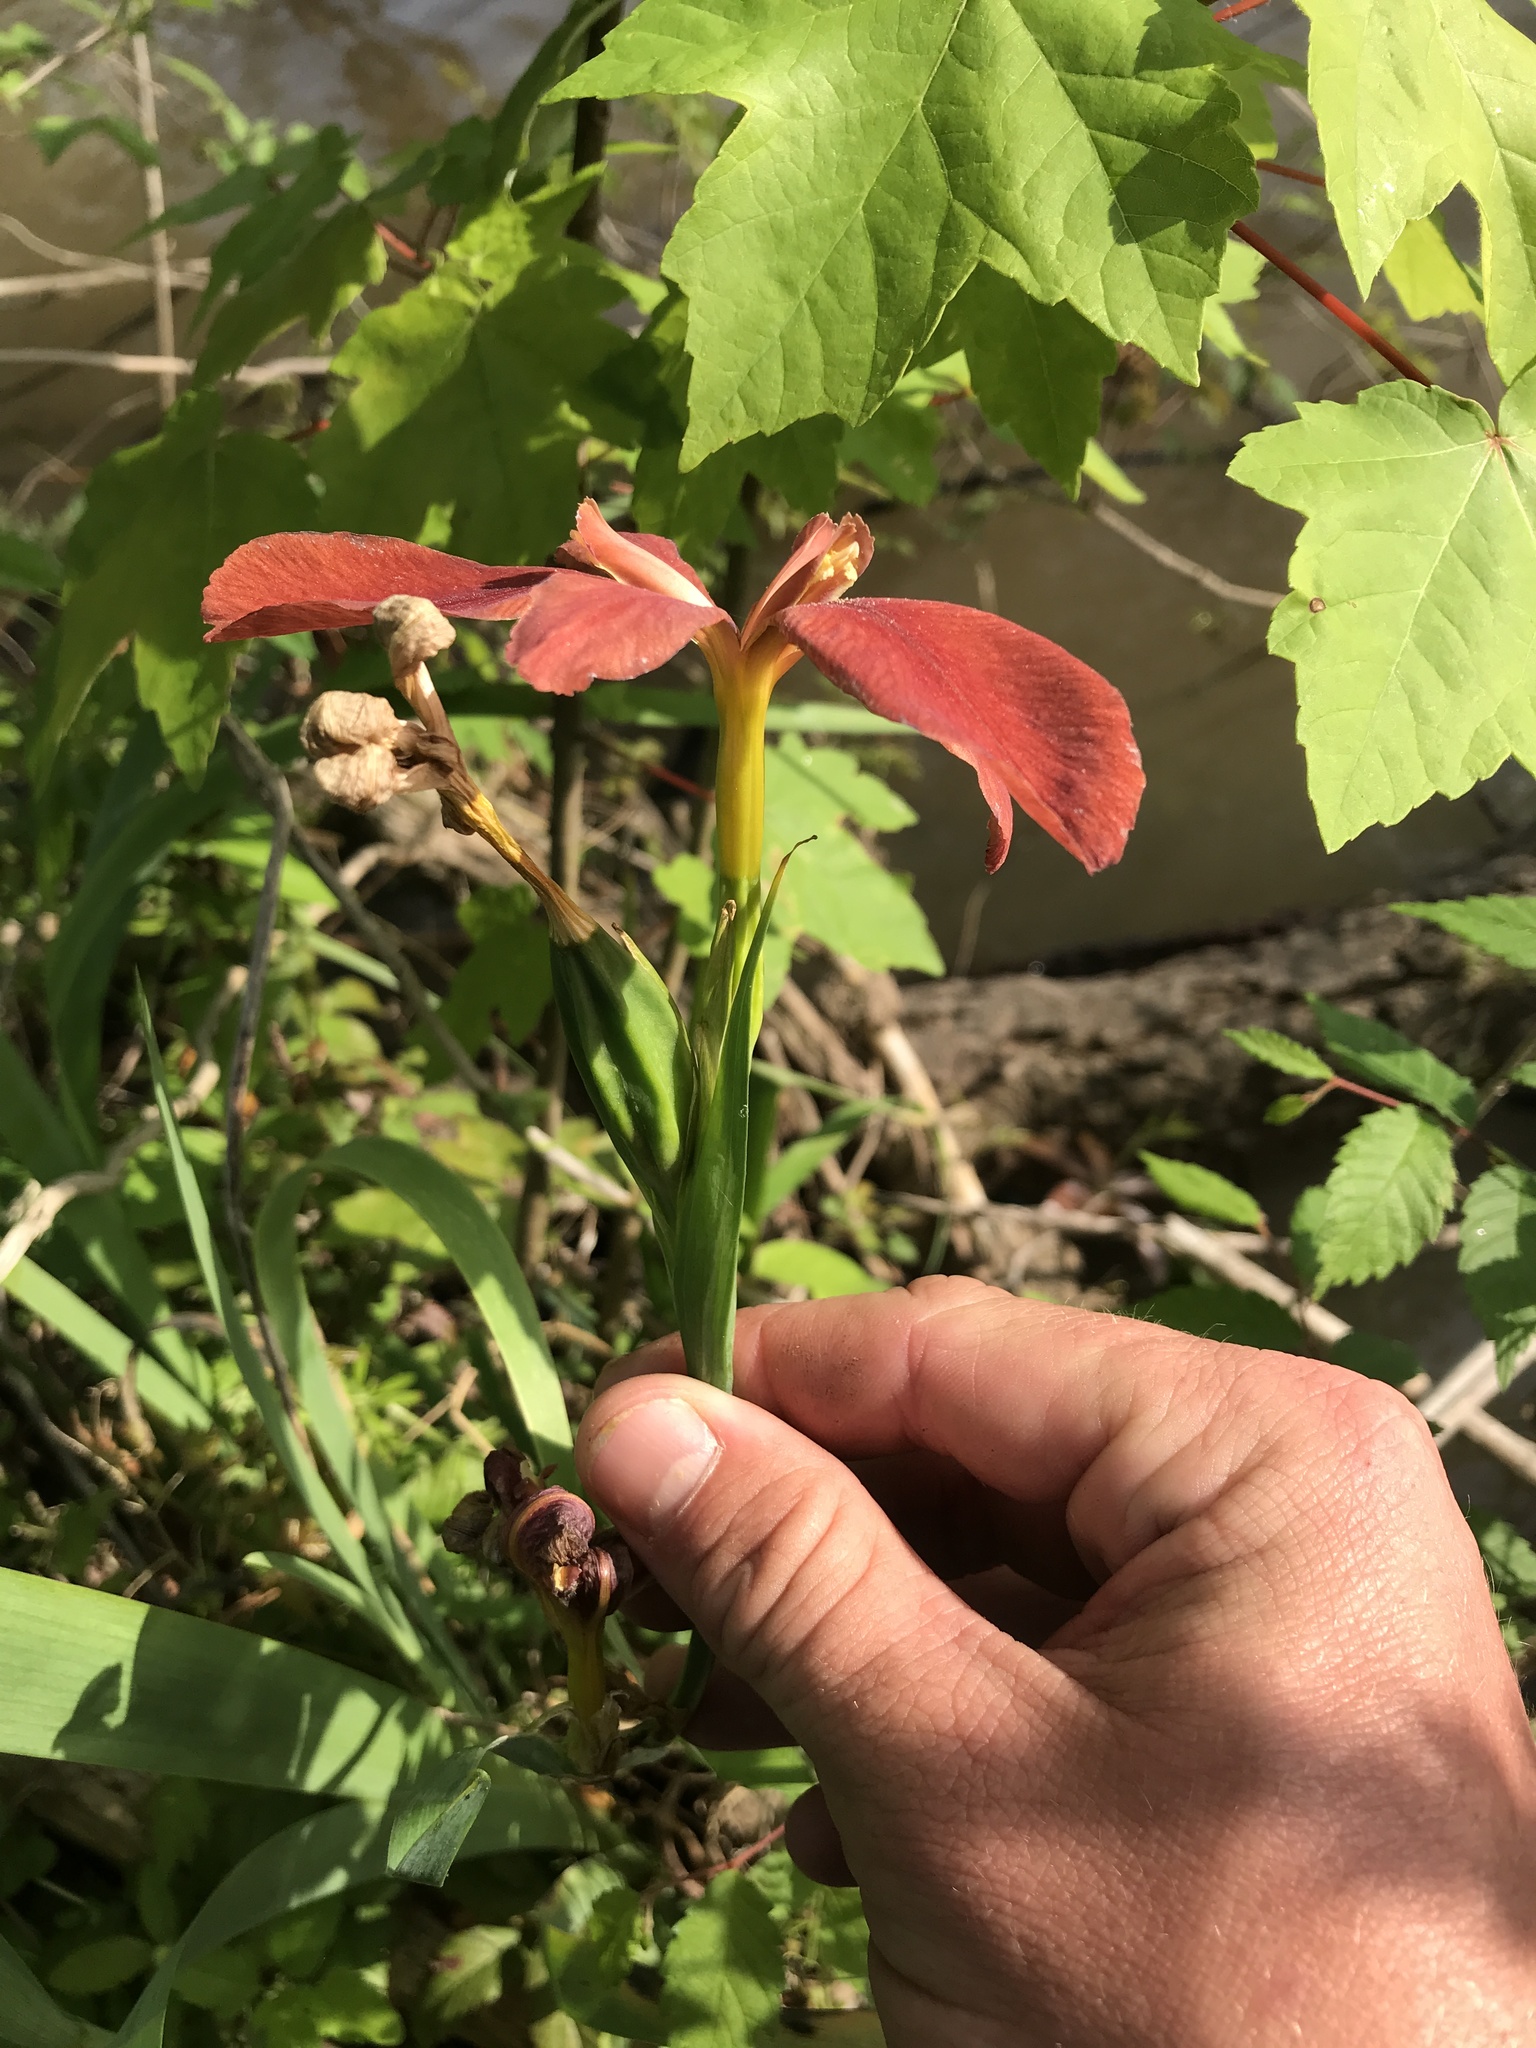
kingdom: Plantae
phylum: Tracheophyta
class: Liliopsida
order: Asparagales
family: Iridaceae
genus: Iris
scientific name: Iris fulva
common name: Copper iris
